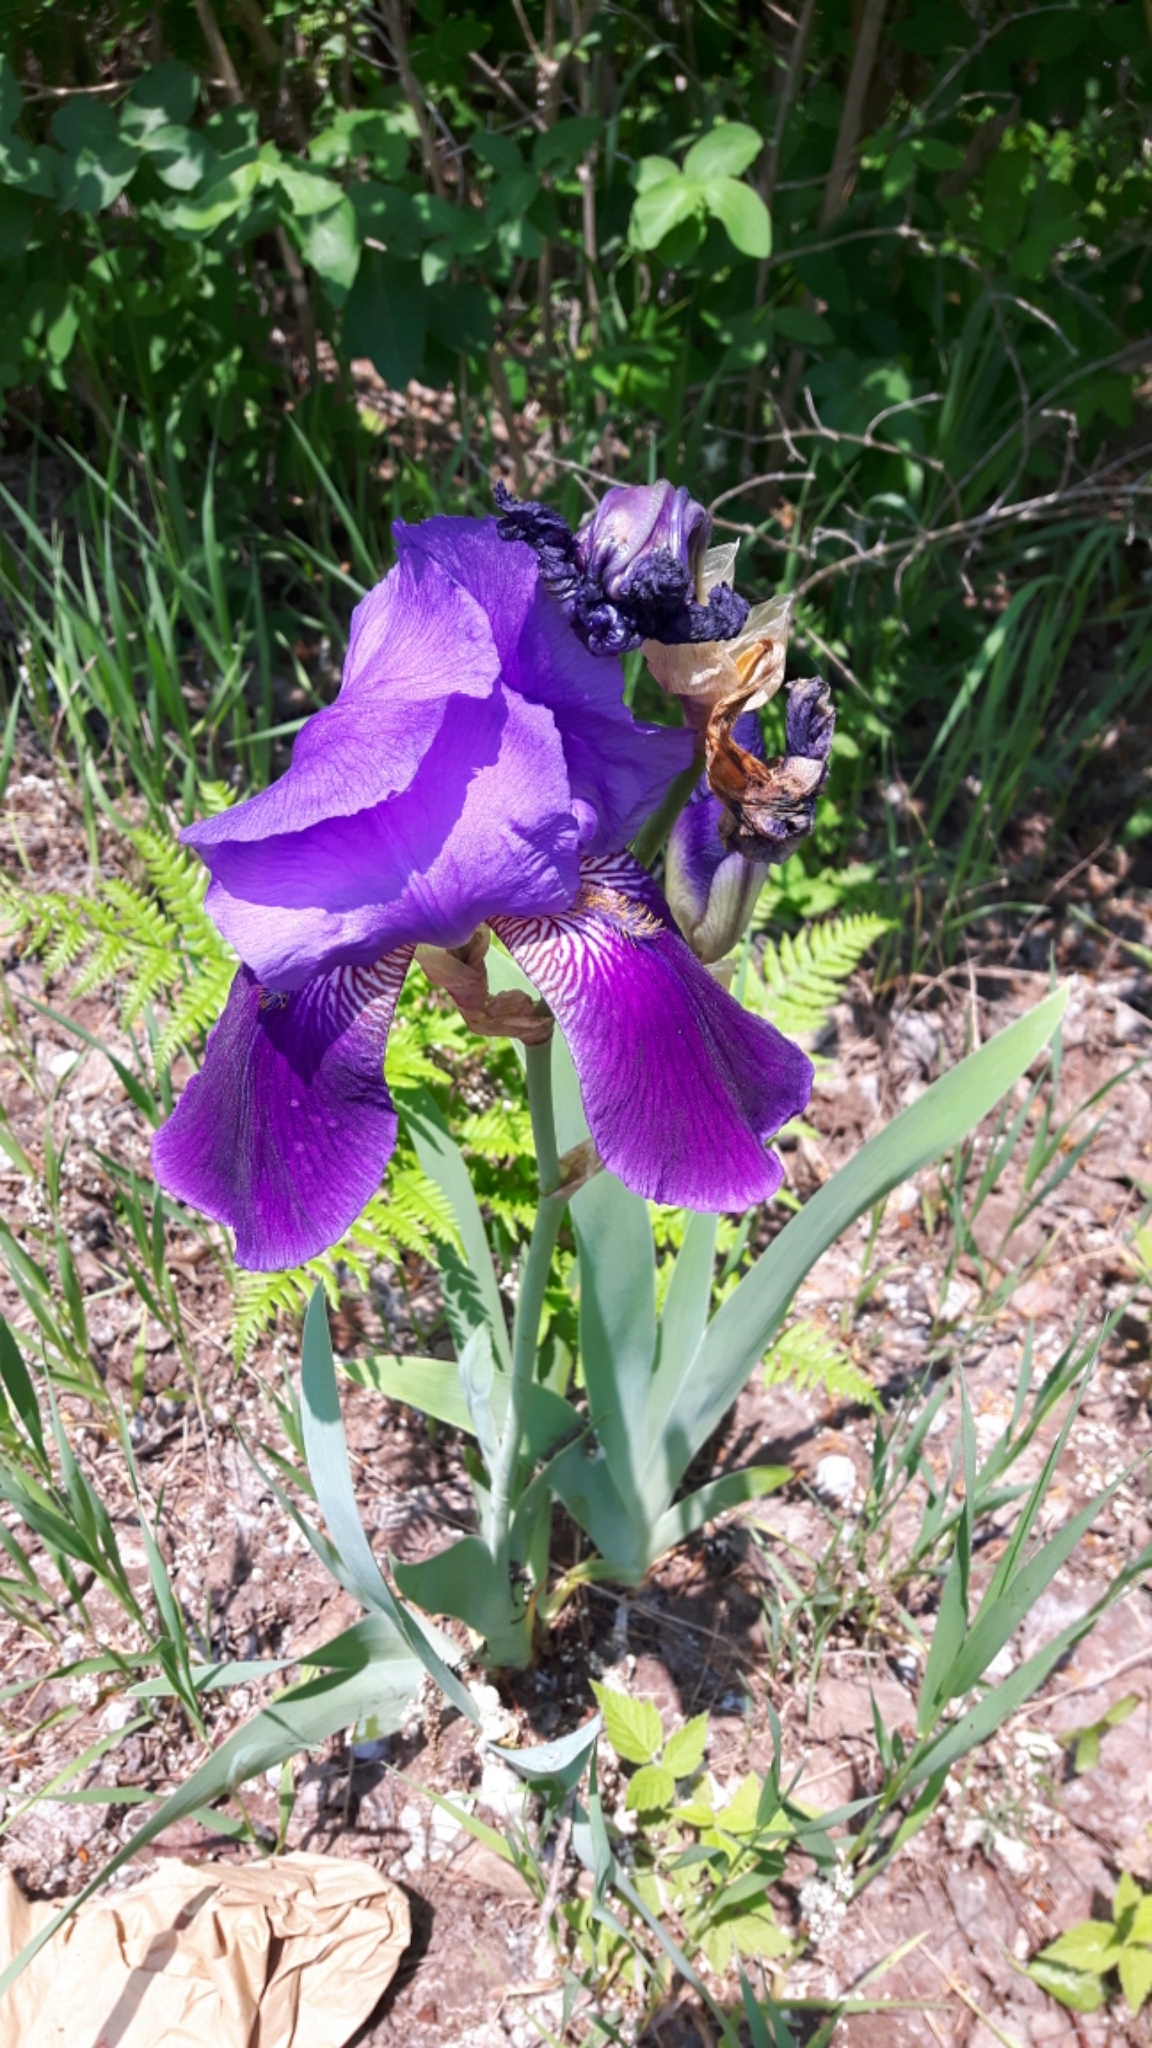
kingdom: Plantae
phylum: Tracheophyta
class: Liliopsida
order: Asparagales
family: Iridaceae
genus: Iris
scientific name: Iris germanica
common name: German iris
